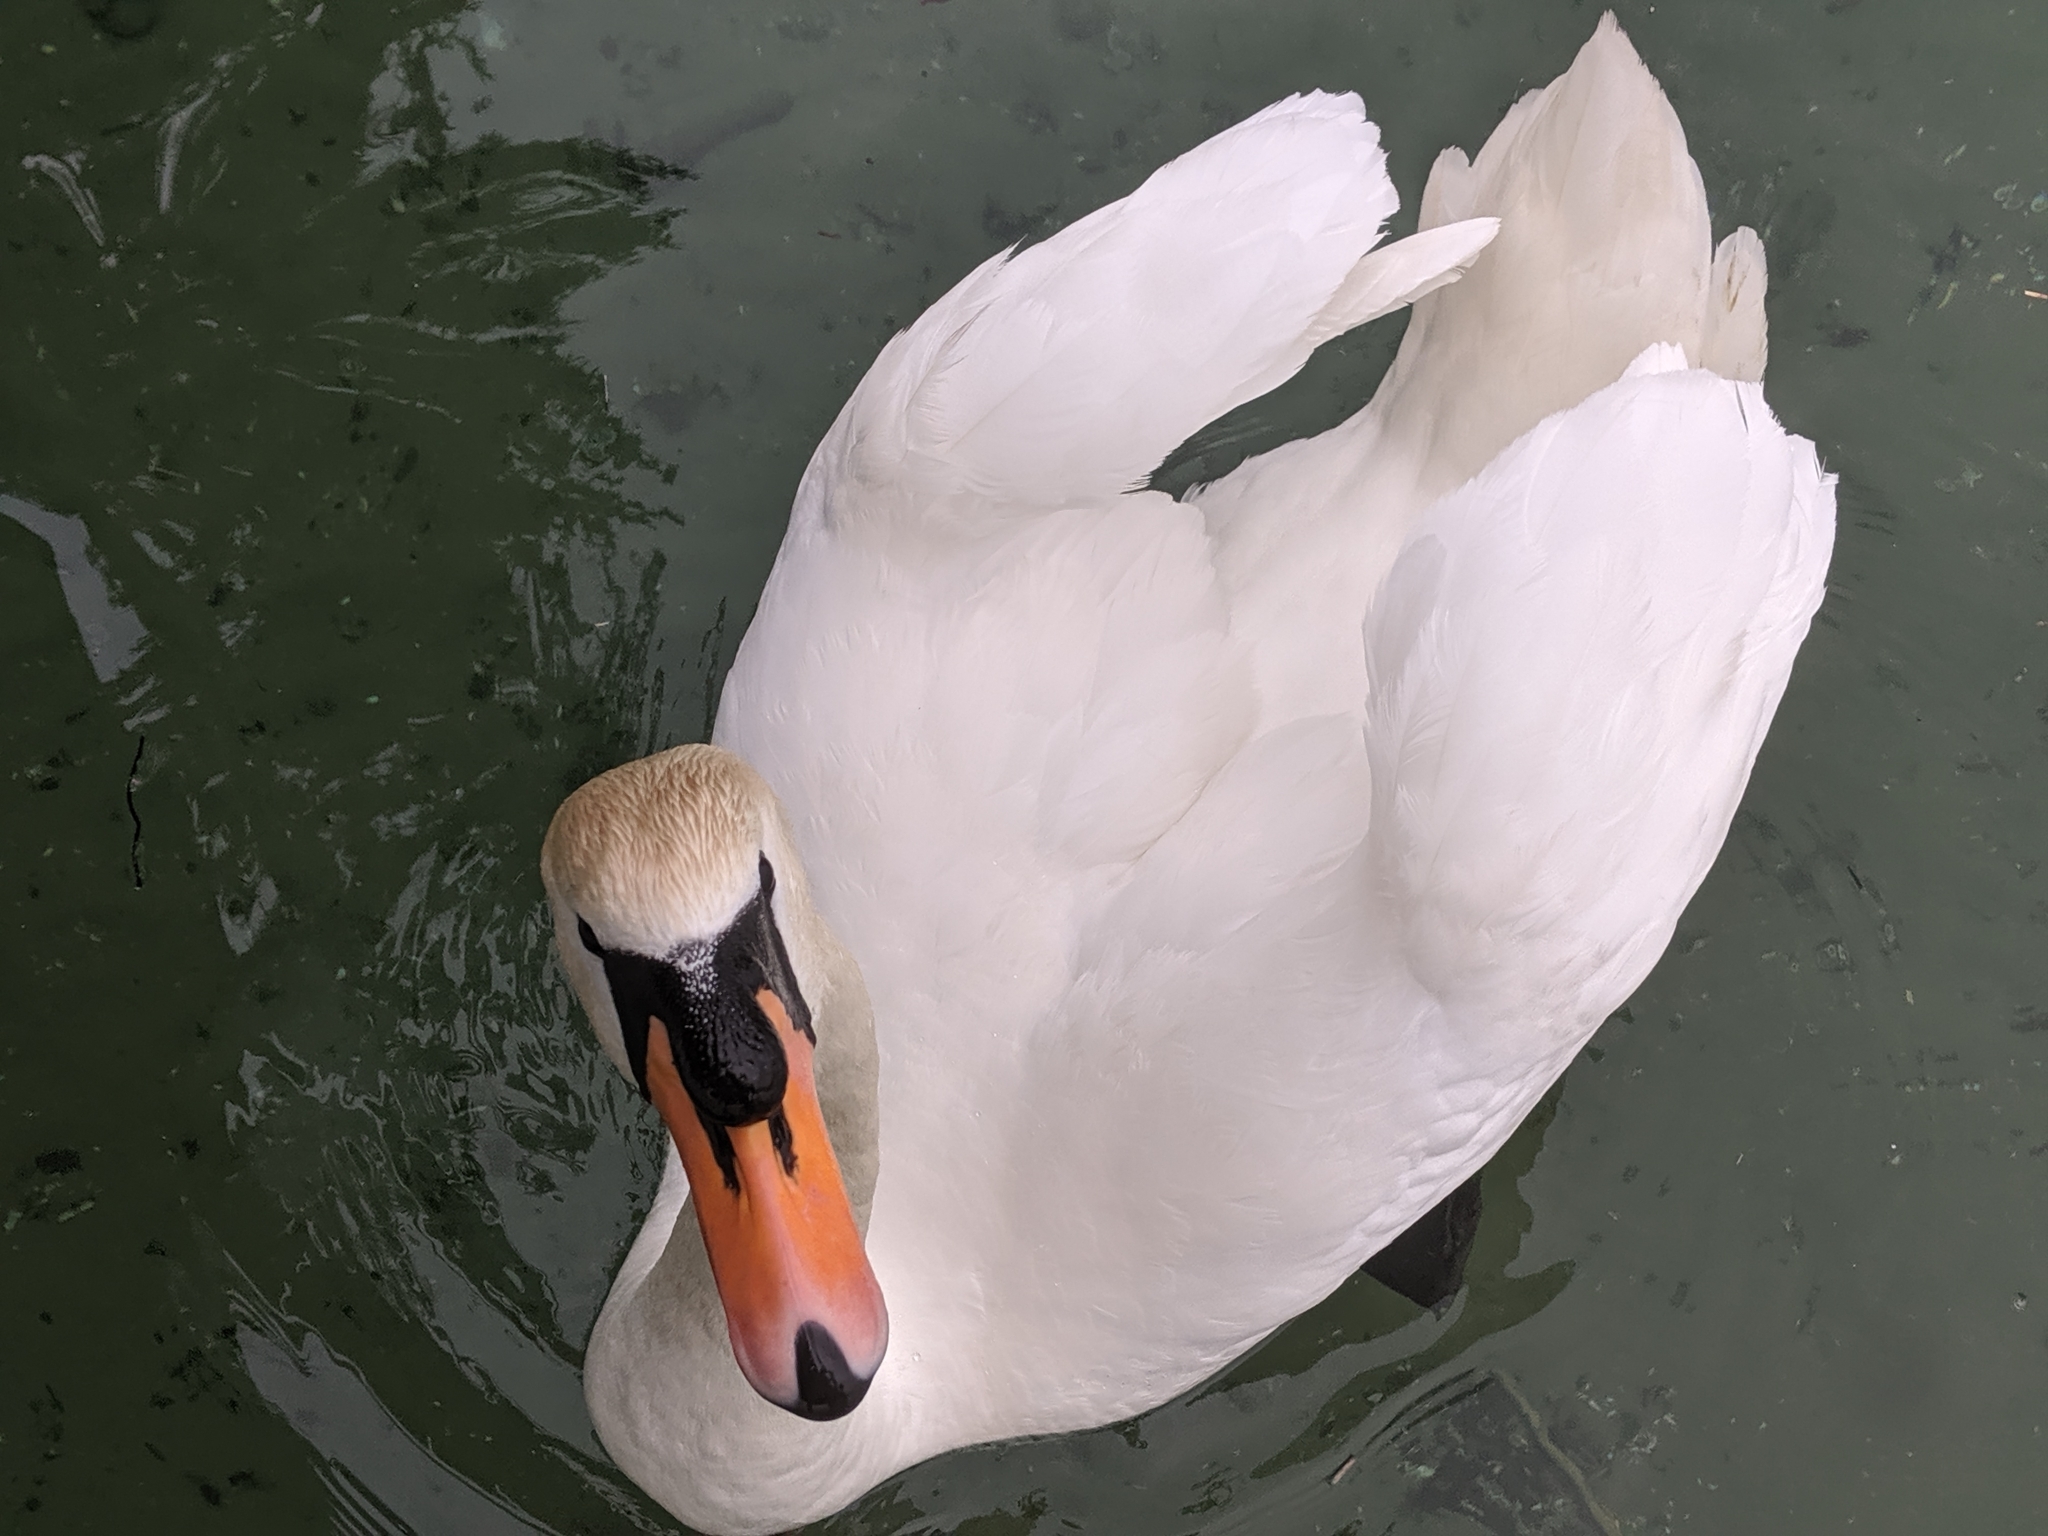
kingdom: Animalia
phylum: Chordata
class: Aves
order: Anseriformes
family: Anatidae
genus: Cygnus
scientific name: Cygnus olor
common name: Mute swan
